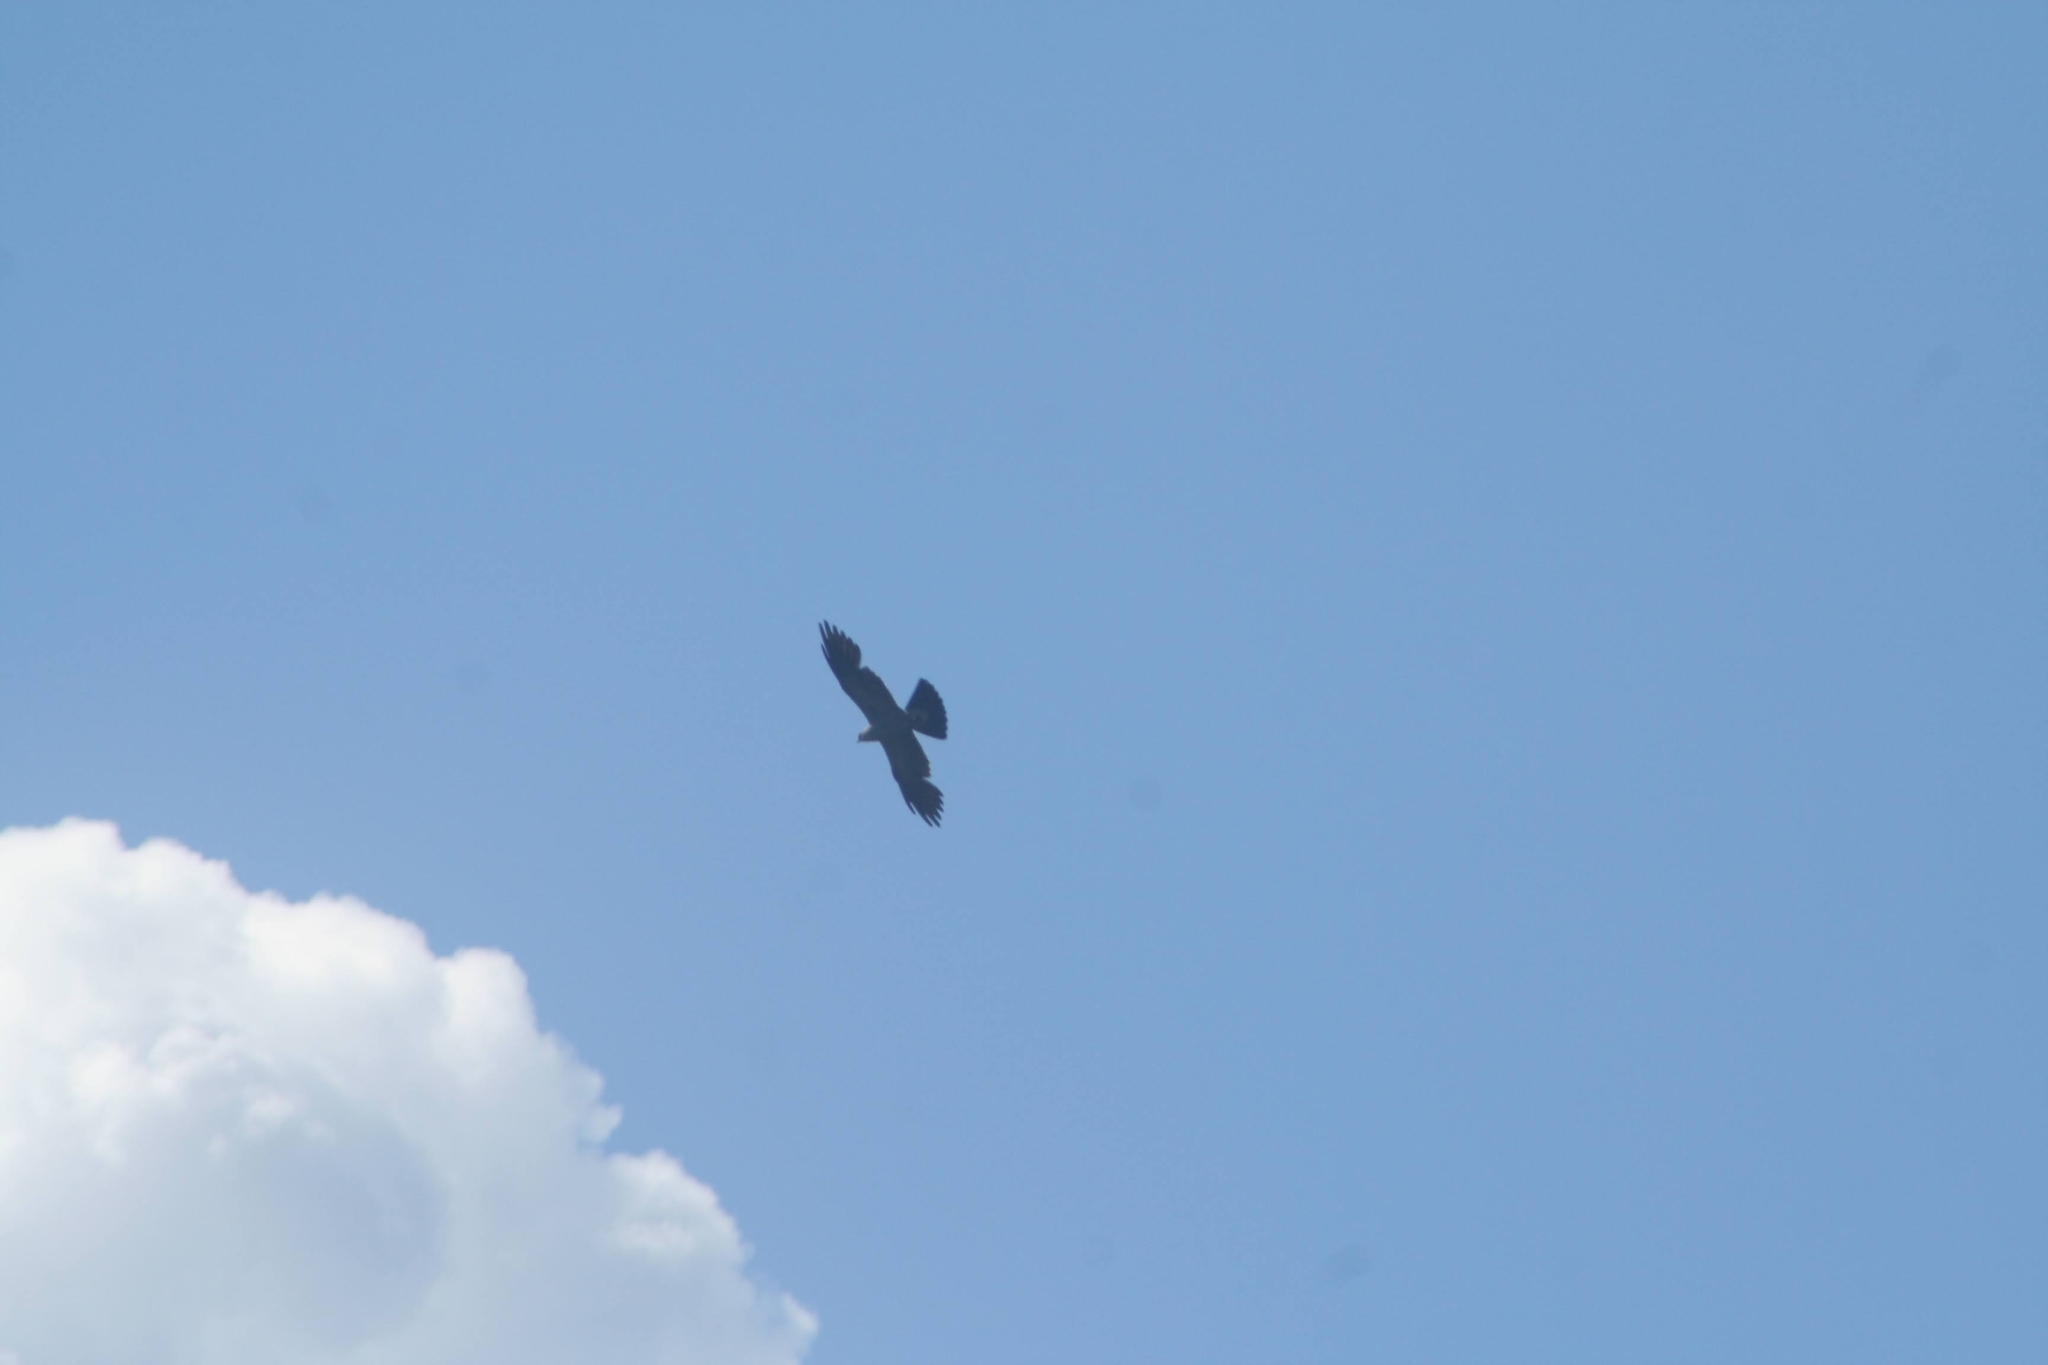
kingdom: Animalia
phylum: Chordata
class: Aves
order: Accipitriformes
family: Accipitridae
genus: Ictinia
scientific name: Ictinia mississippiensis
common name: Mississippi kite
